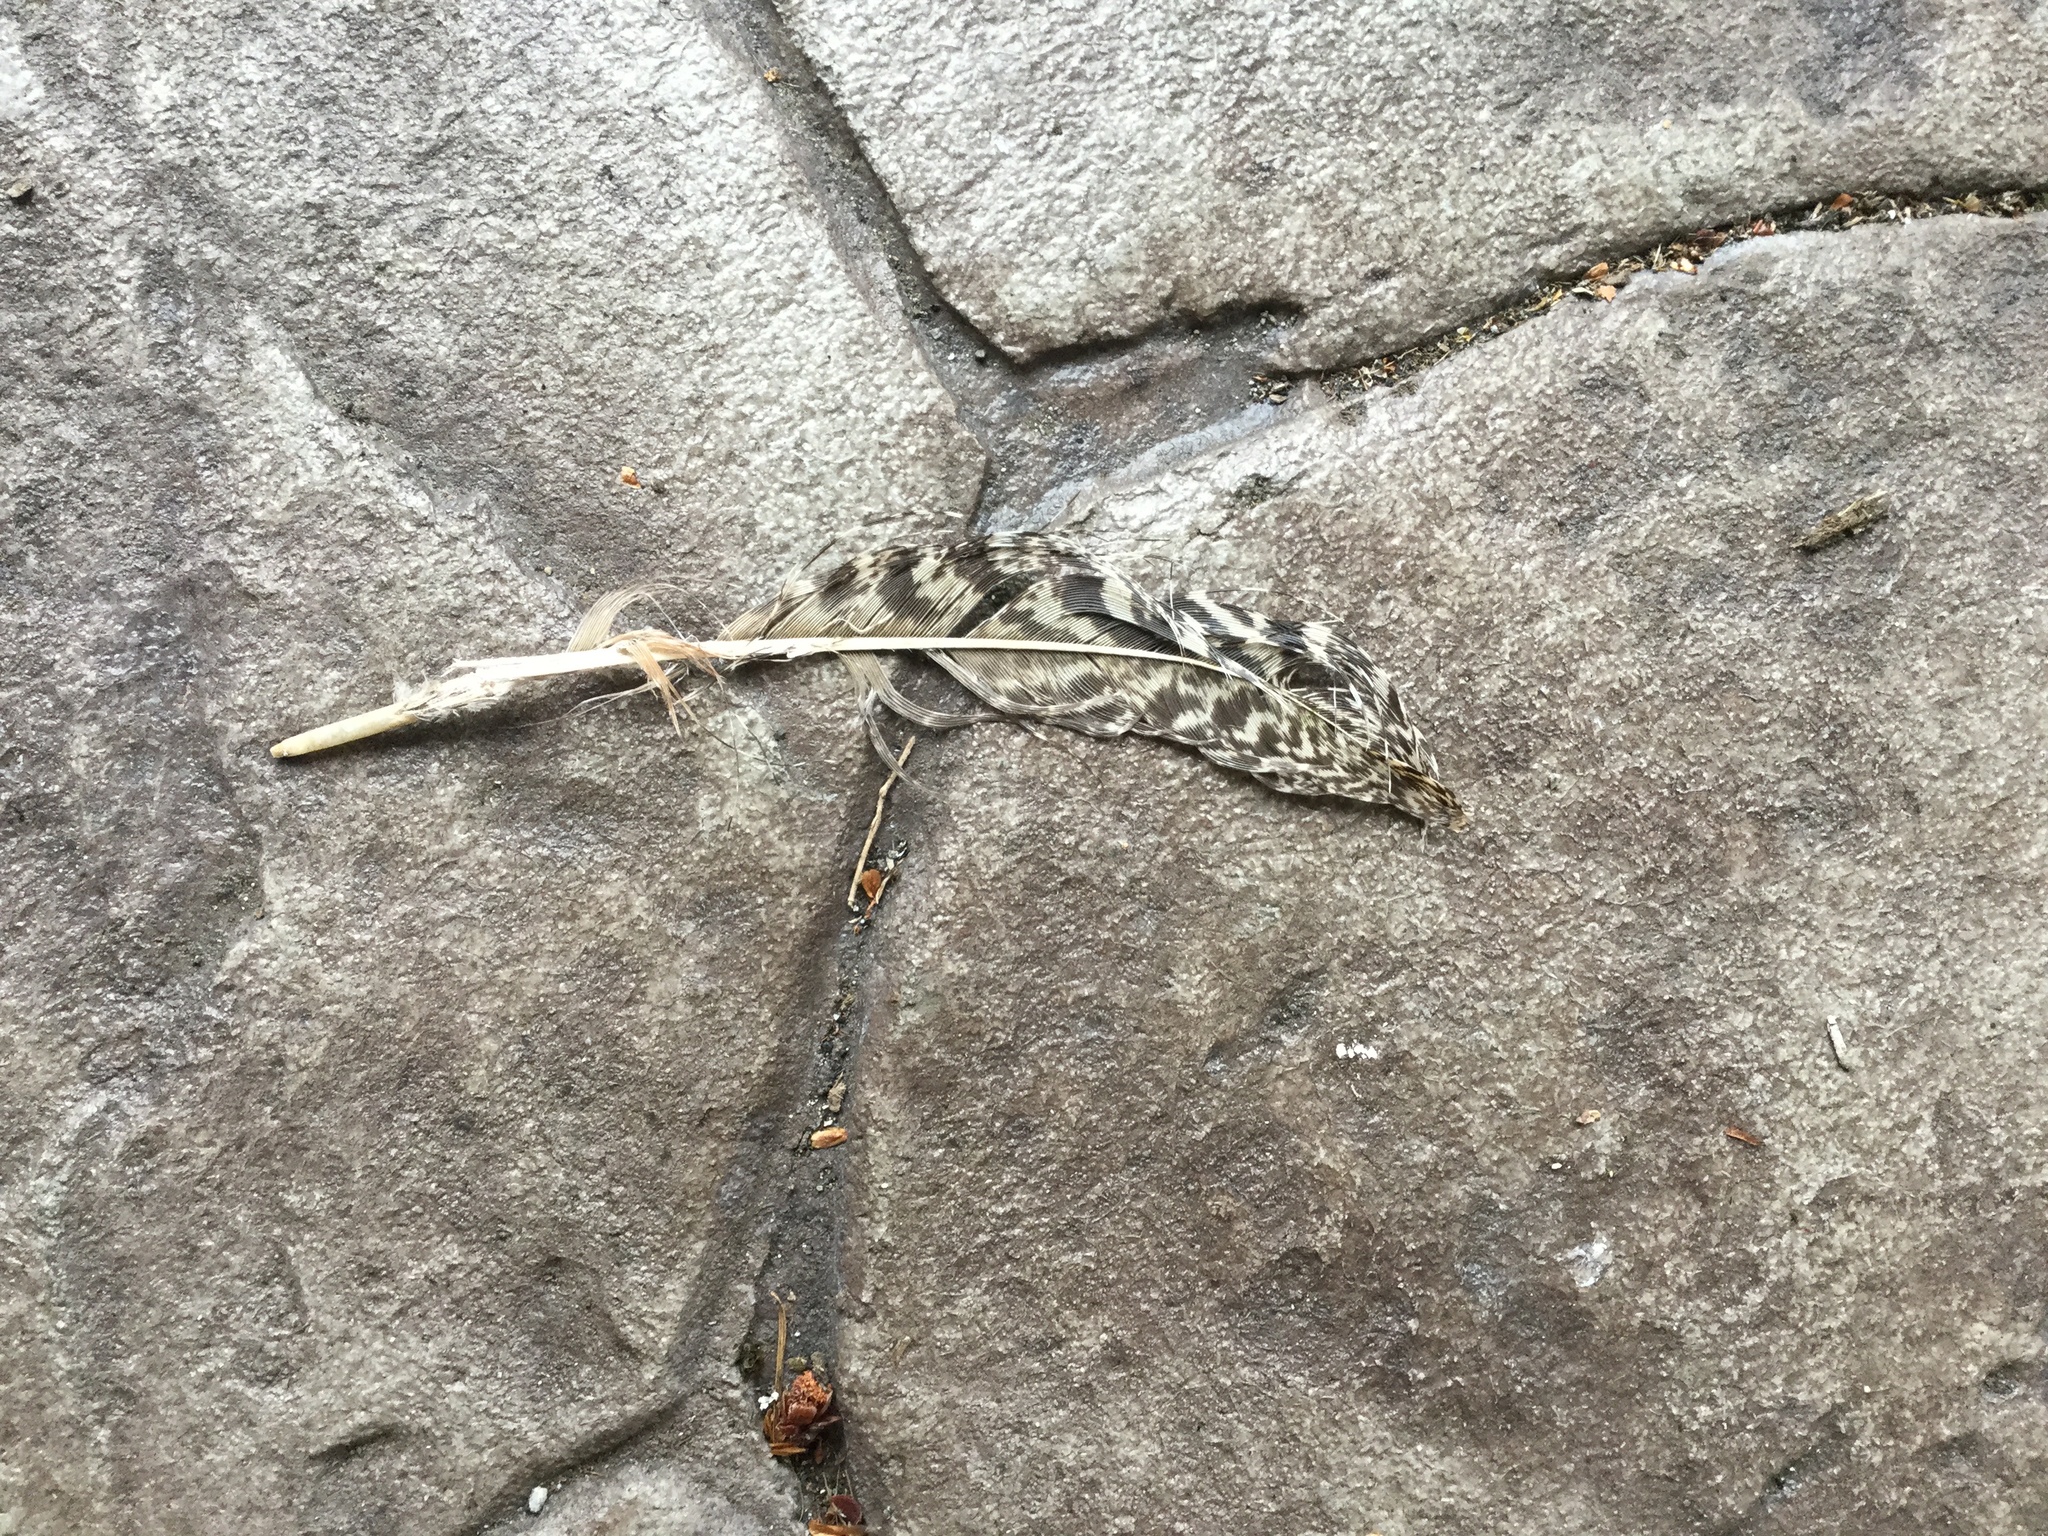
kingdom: Animalia
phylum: Chordata
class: Aves
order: Galliformes
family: Phasianidae
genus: Pavo
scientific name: Pavo cristatus
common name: Indian peafowl
